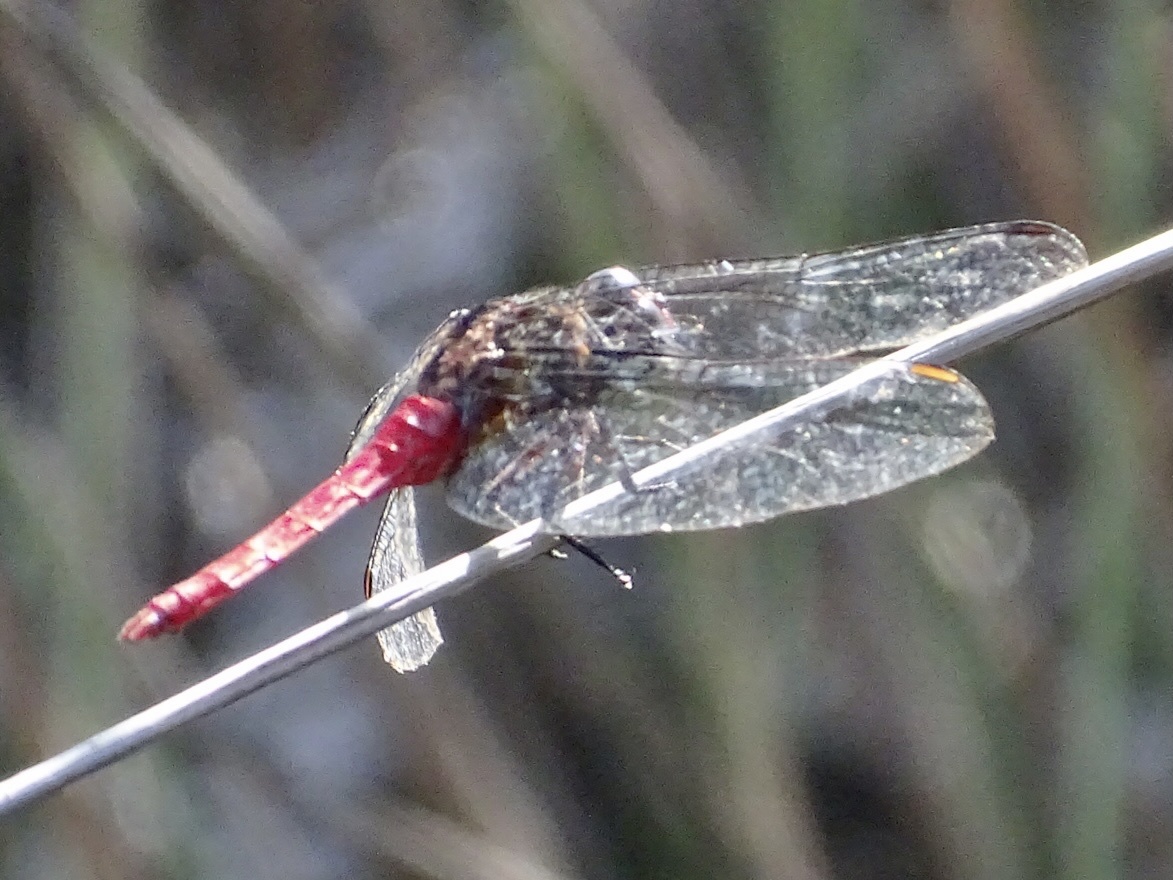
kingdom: Animalia
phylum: Arthropoda
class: Insecta
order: Odonata
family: Libellulidae
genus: Orthetrum
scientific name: Orthetrum chrysis
